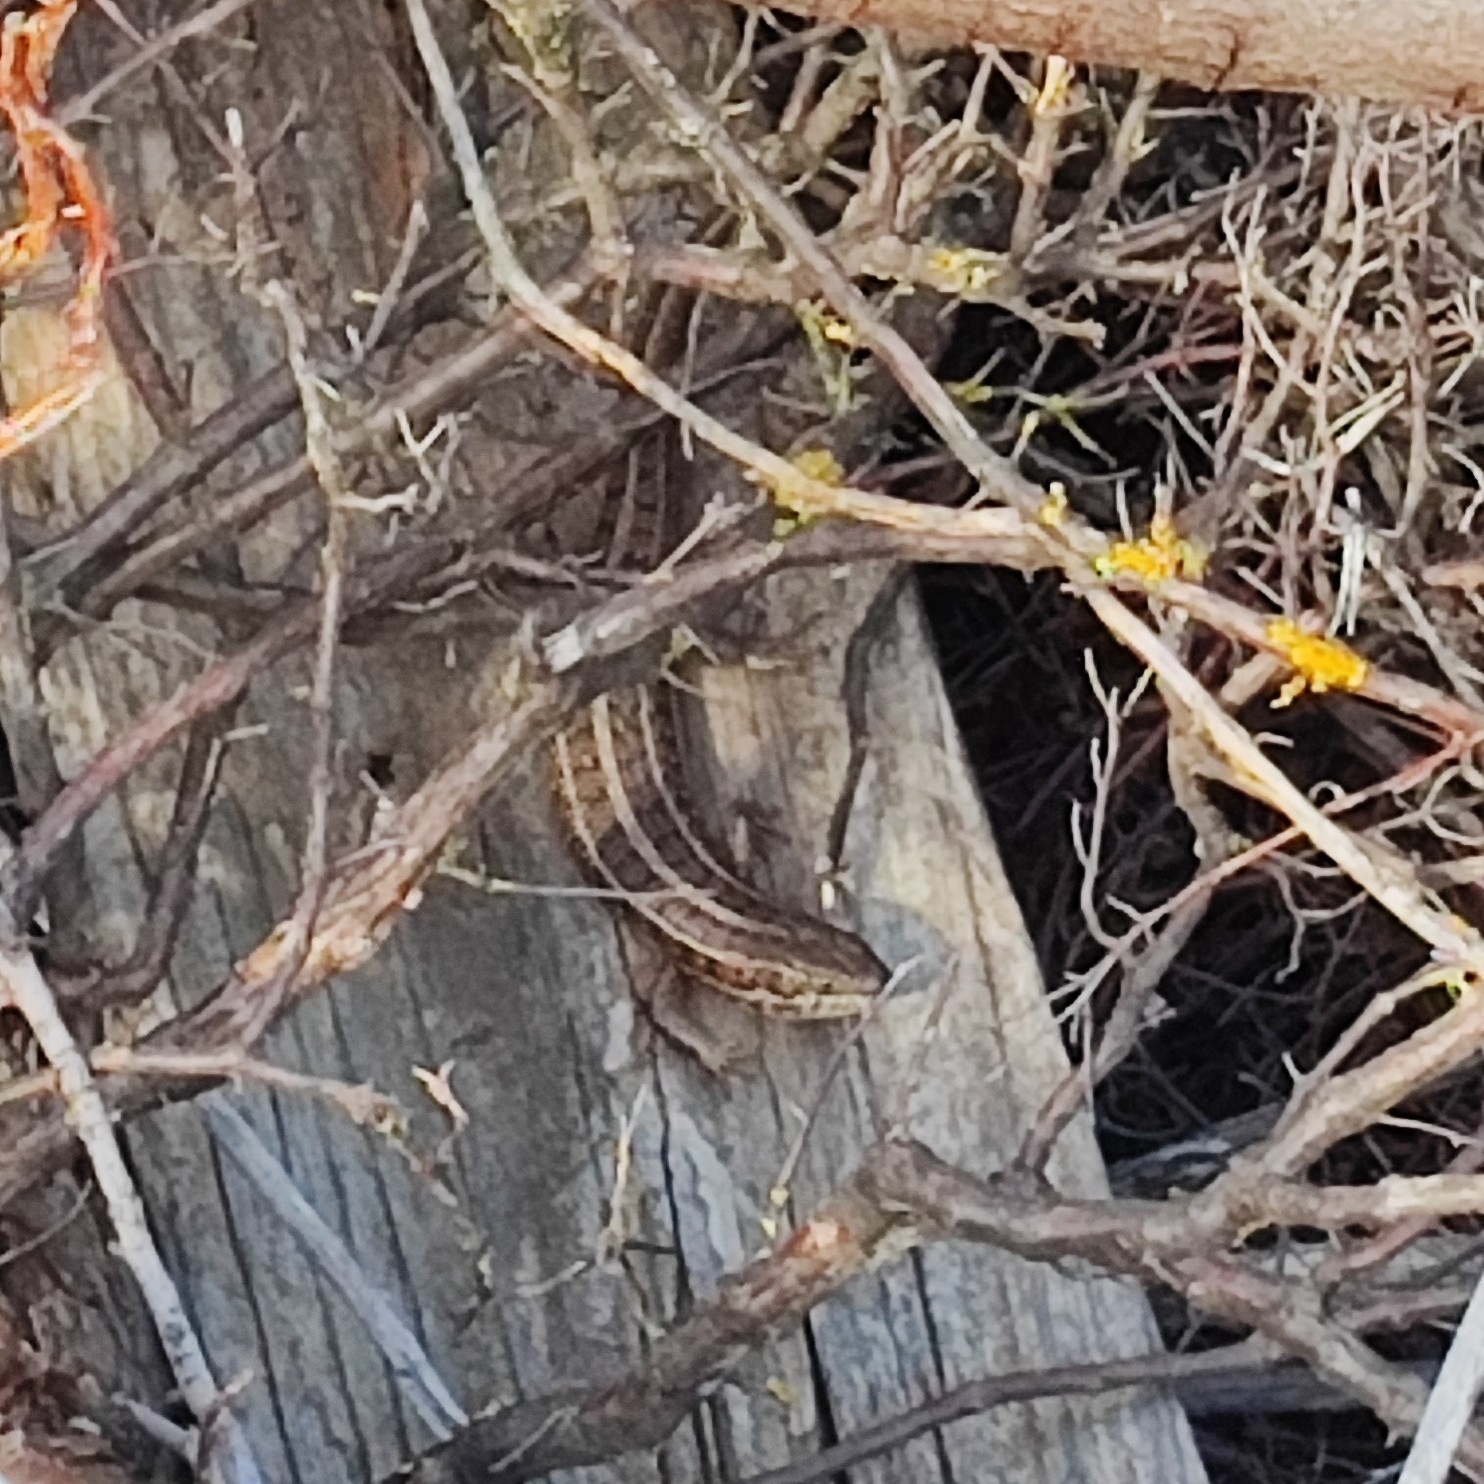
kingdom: Animalia
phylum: Chordata
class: Squamata
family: Scincidae
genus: Trachylepis
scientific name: Trachylepis capensis
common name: Cape skink
